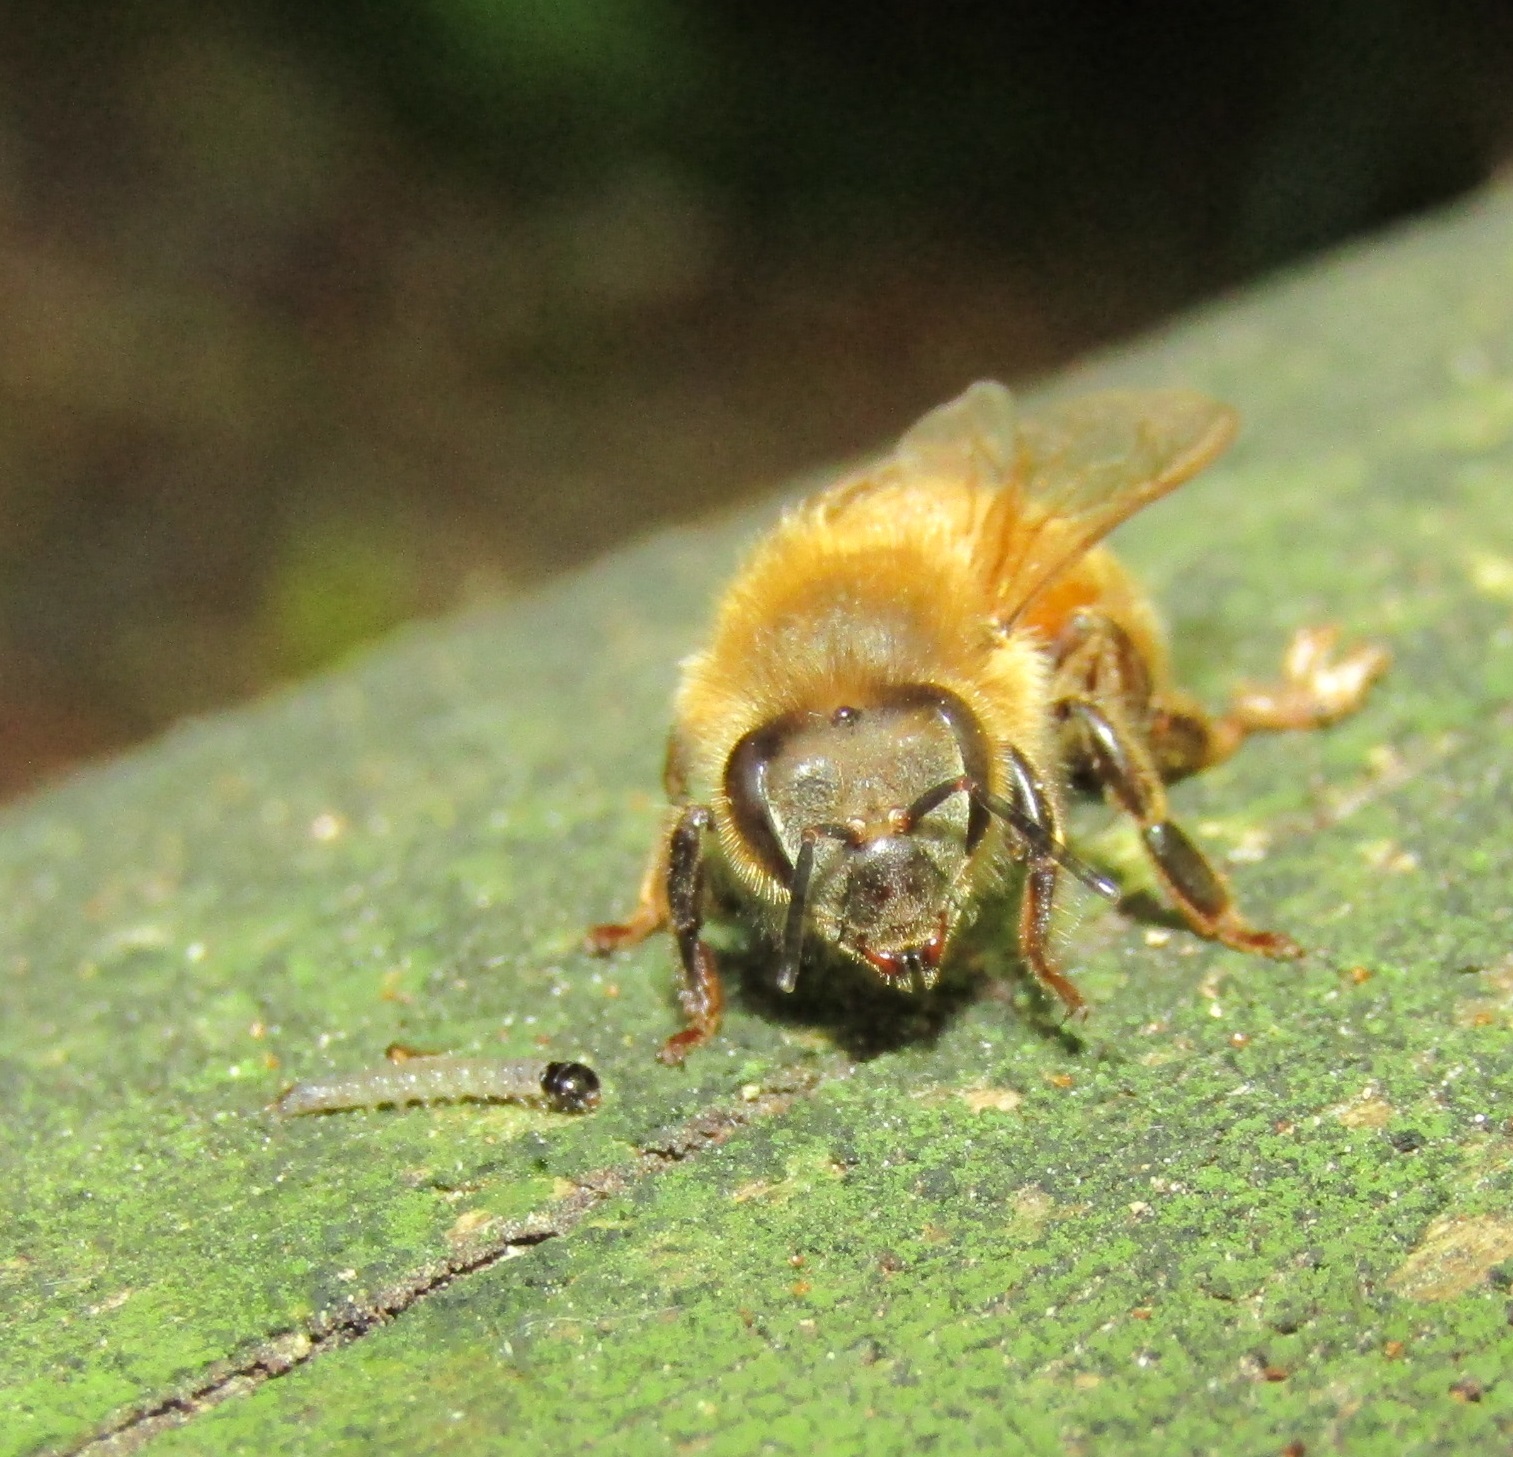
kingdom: Animalia
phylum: Arthropoda
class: Insecta
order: Hymenoptera
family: Apidae
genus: Apis
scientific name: Apis mellifera
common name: Honey bee
